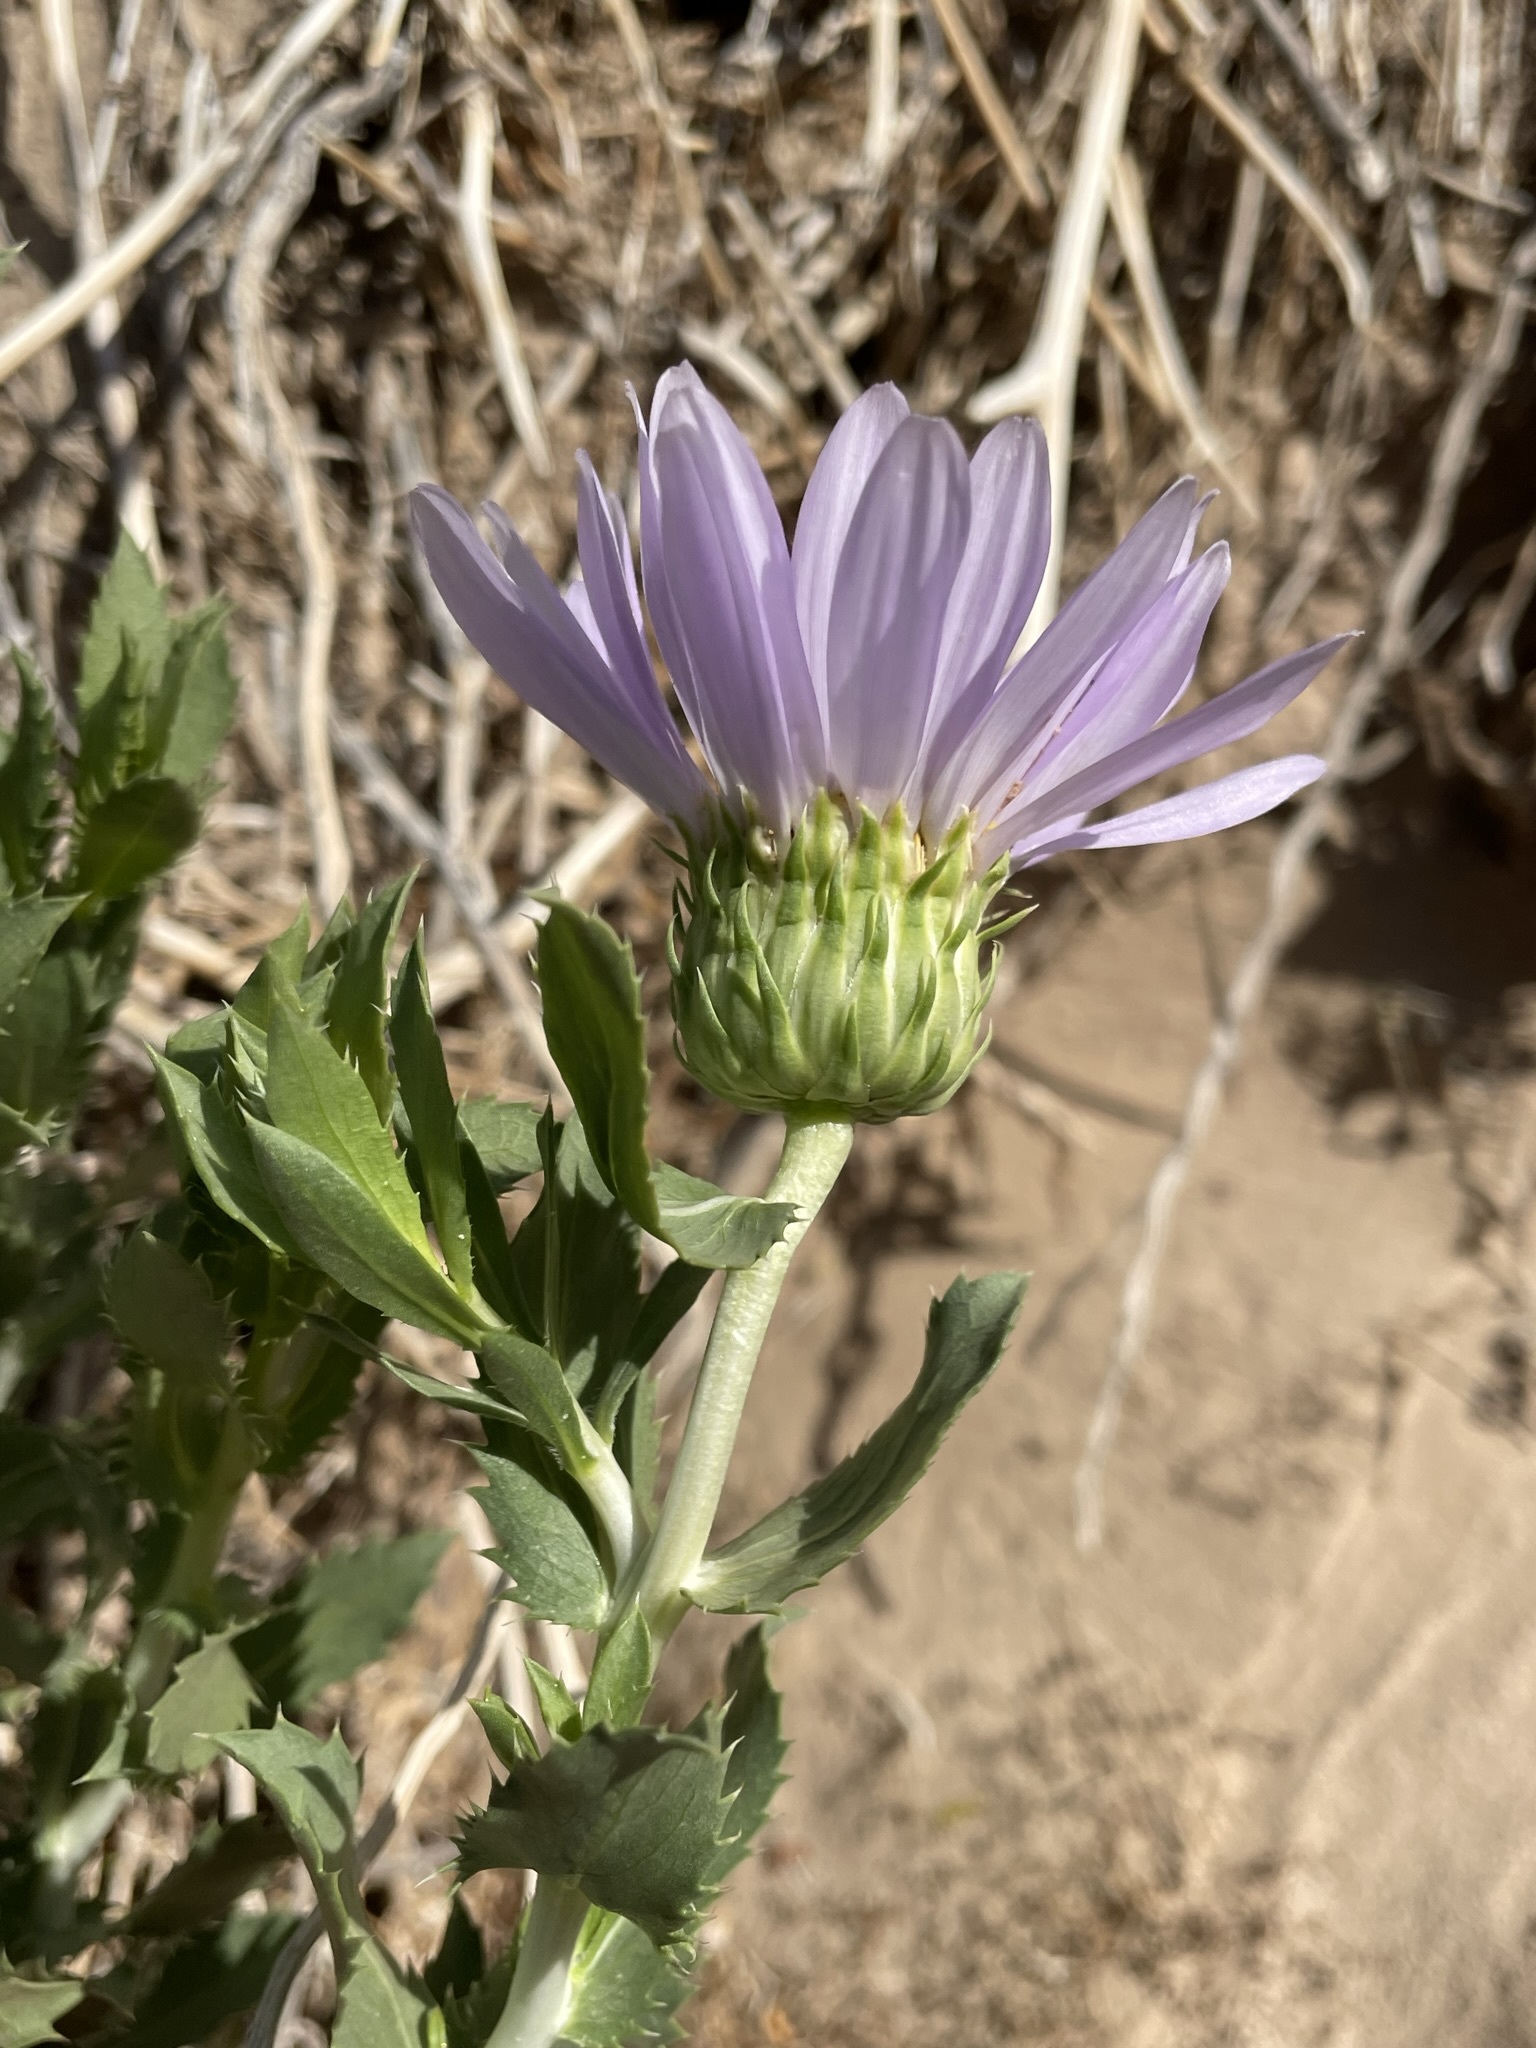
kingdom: Plantae
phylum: Tracheophyta
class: Magnoliopsida
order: Asterales
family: Asteraceae
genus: Xylorhiza
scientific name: Xylorhiza orcuttii
